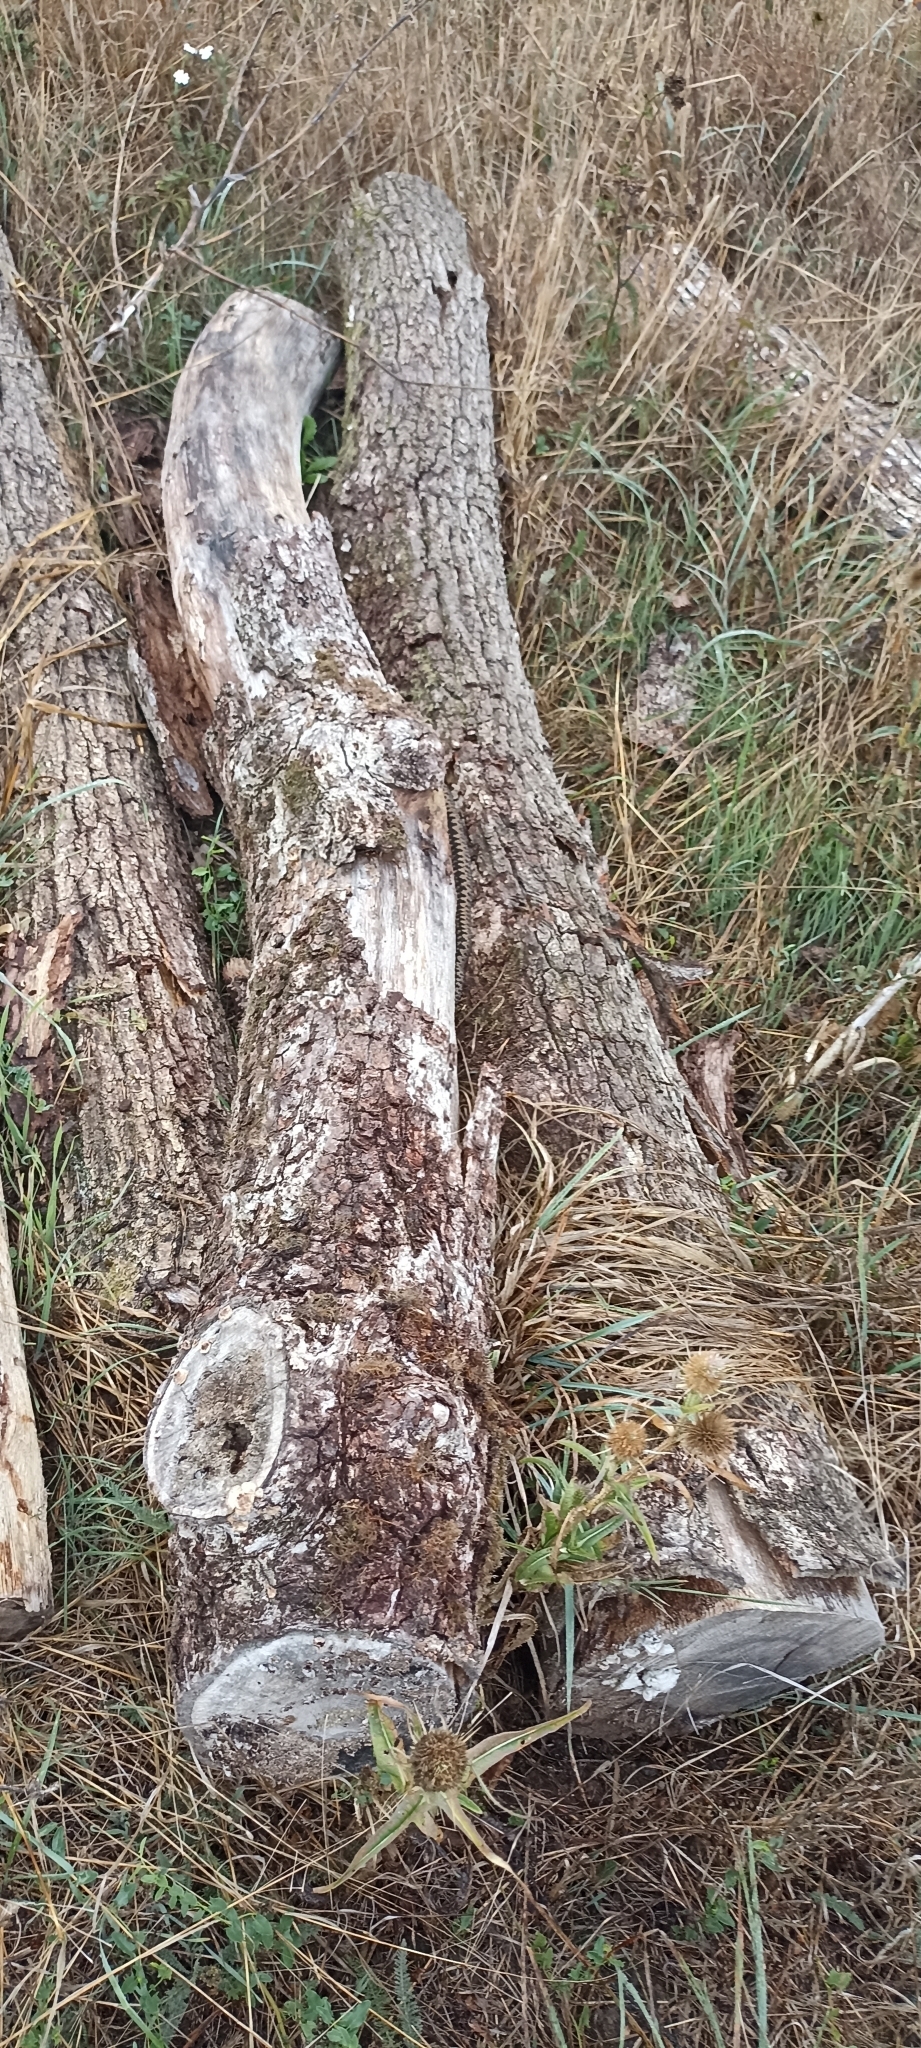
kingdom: Animalia
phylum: Chordata
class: Squamata
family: Viperidae
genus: Vipera
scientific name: Vipera berus
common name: Adder
